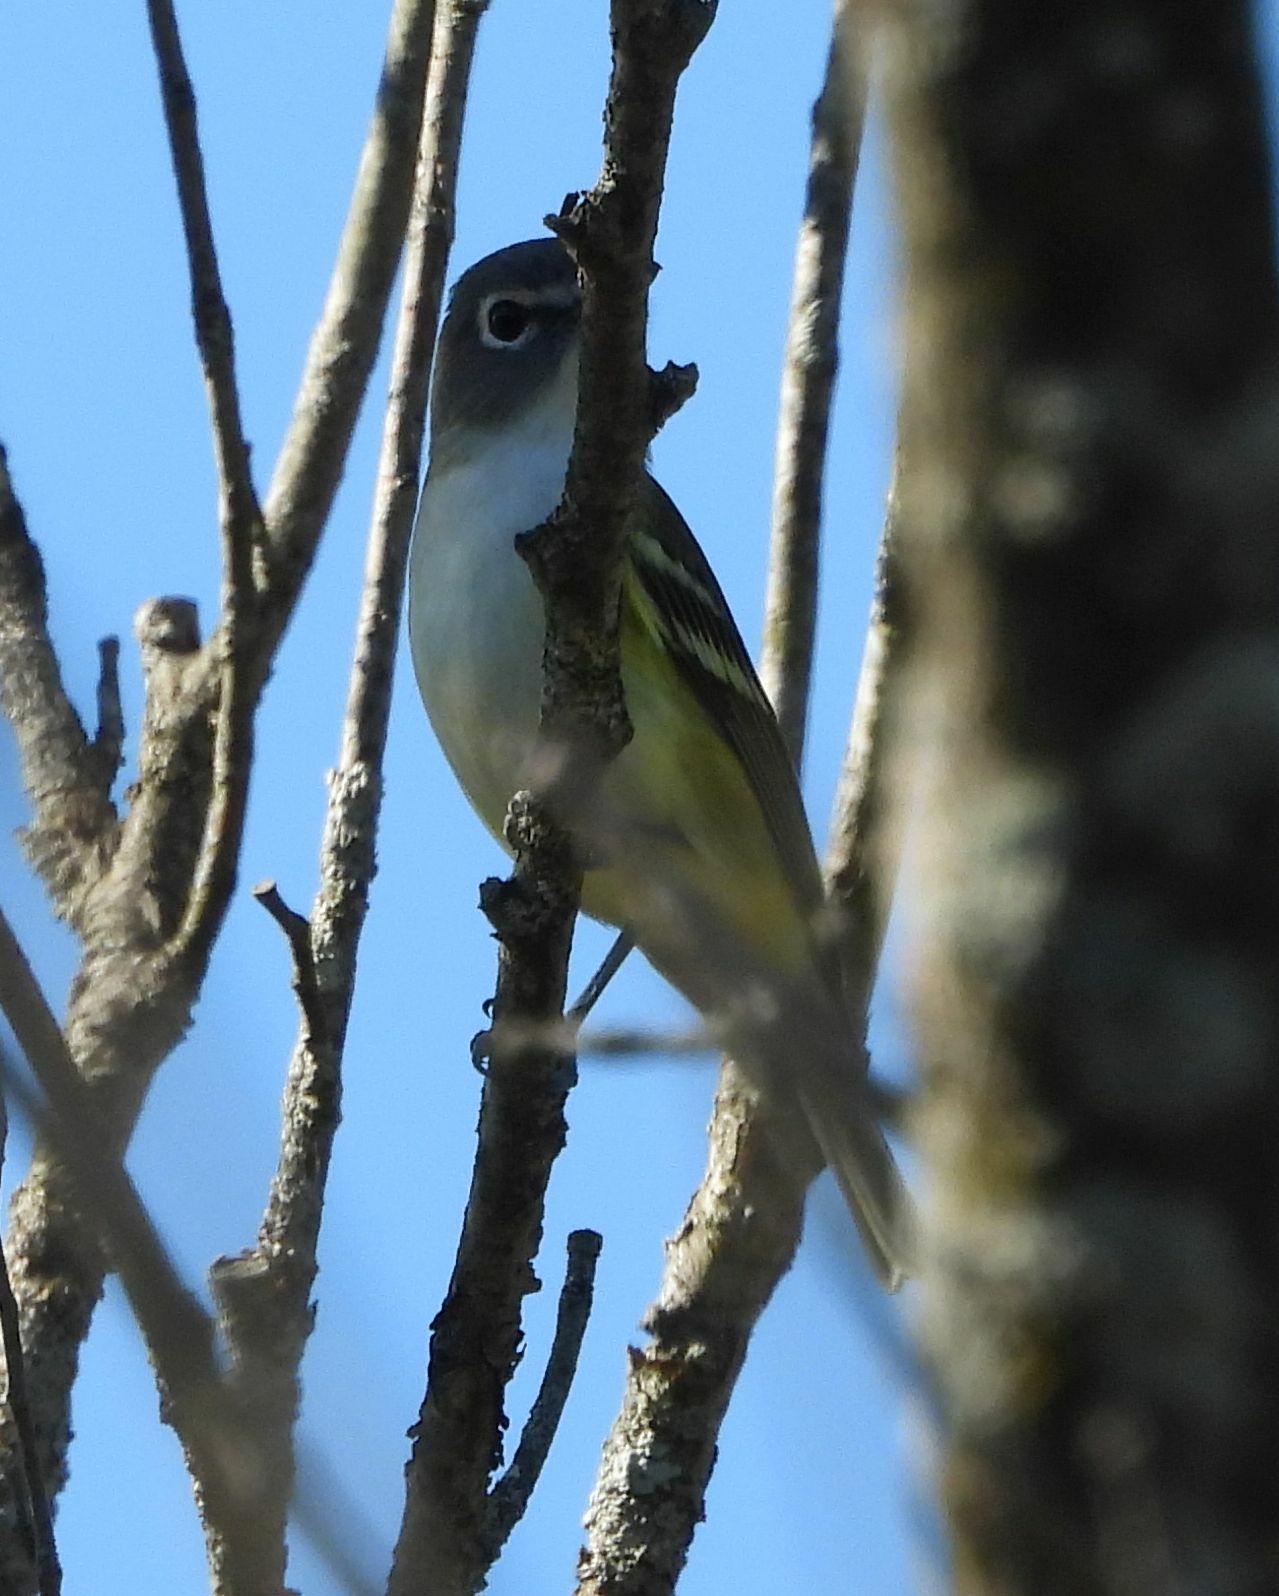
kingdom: Animalia
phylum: Chordata
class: Aves
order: Passeriformes
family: Vireonidae
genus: Vireo
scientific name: Vireo solitarius
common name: Blue-headed vireo
